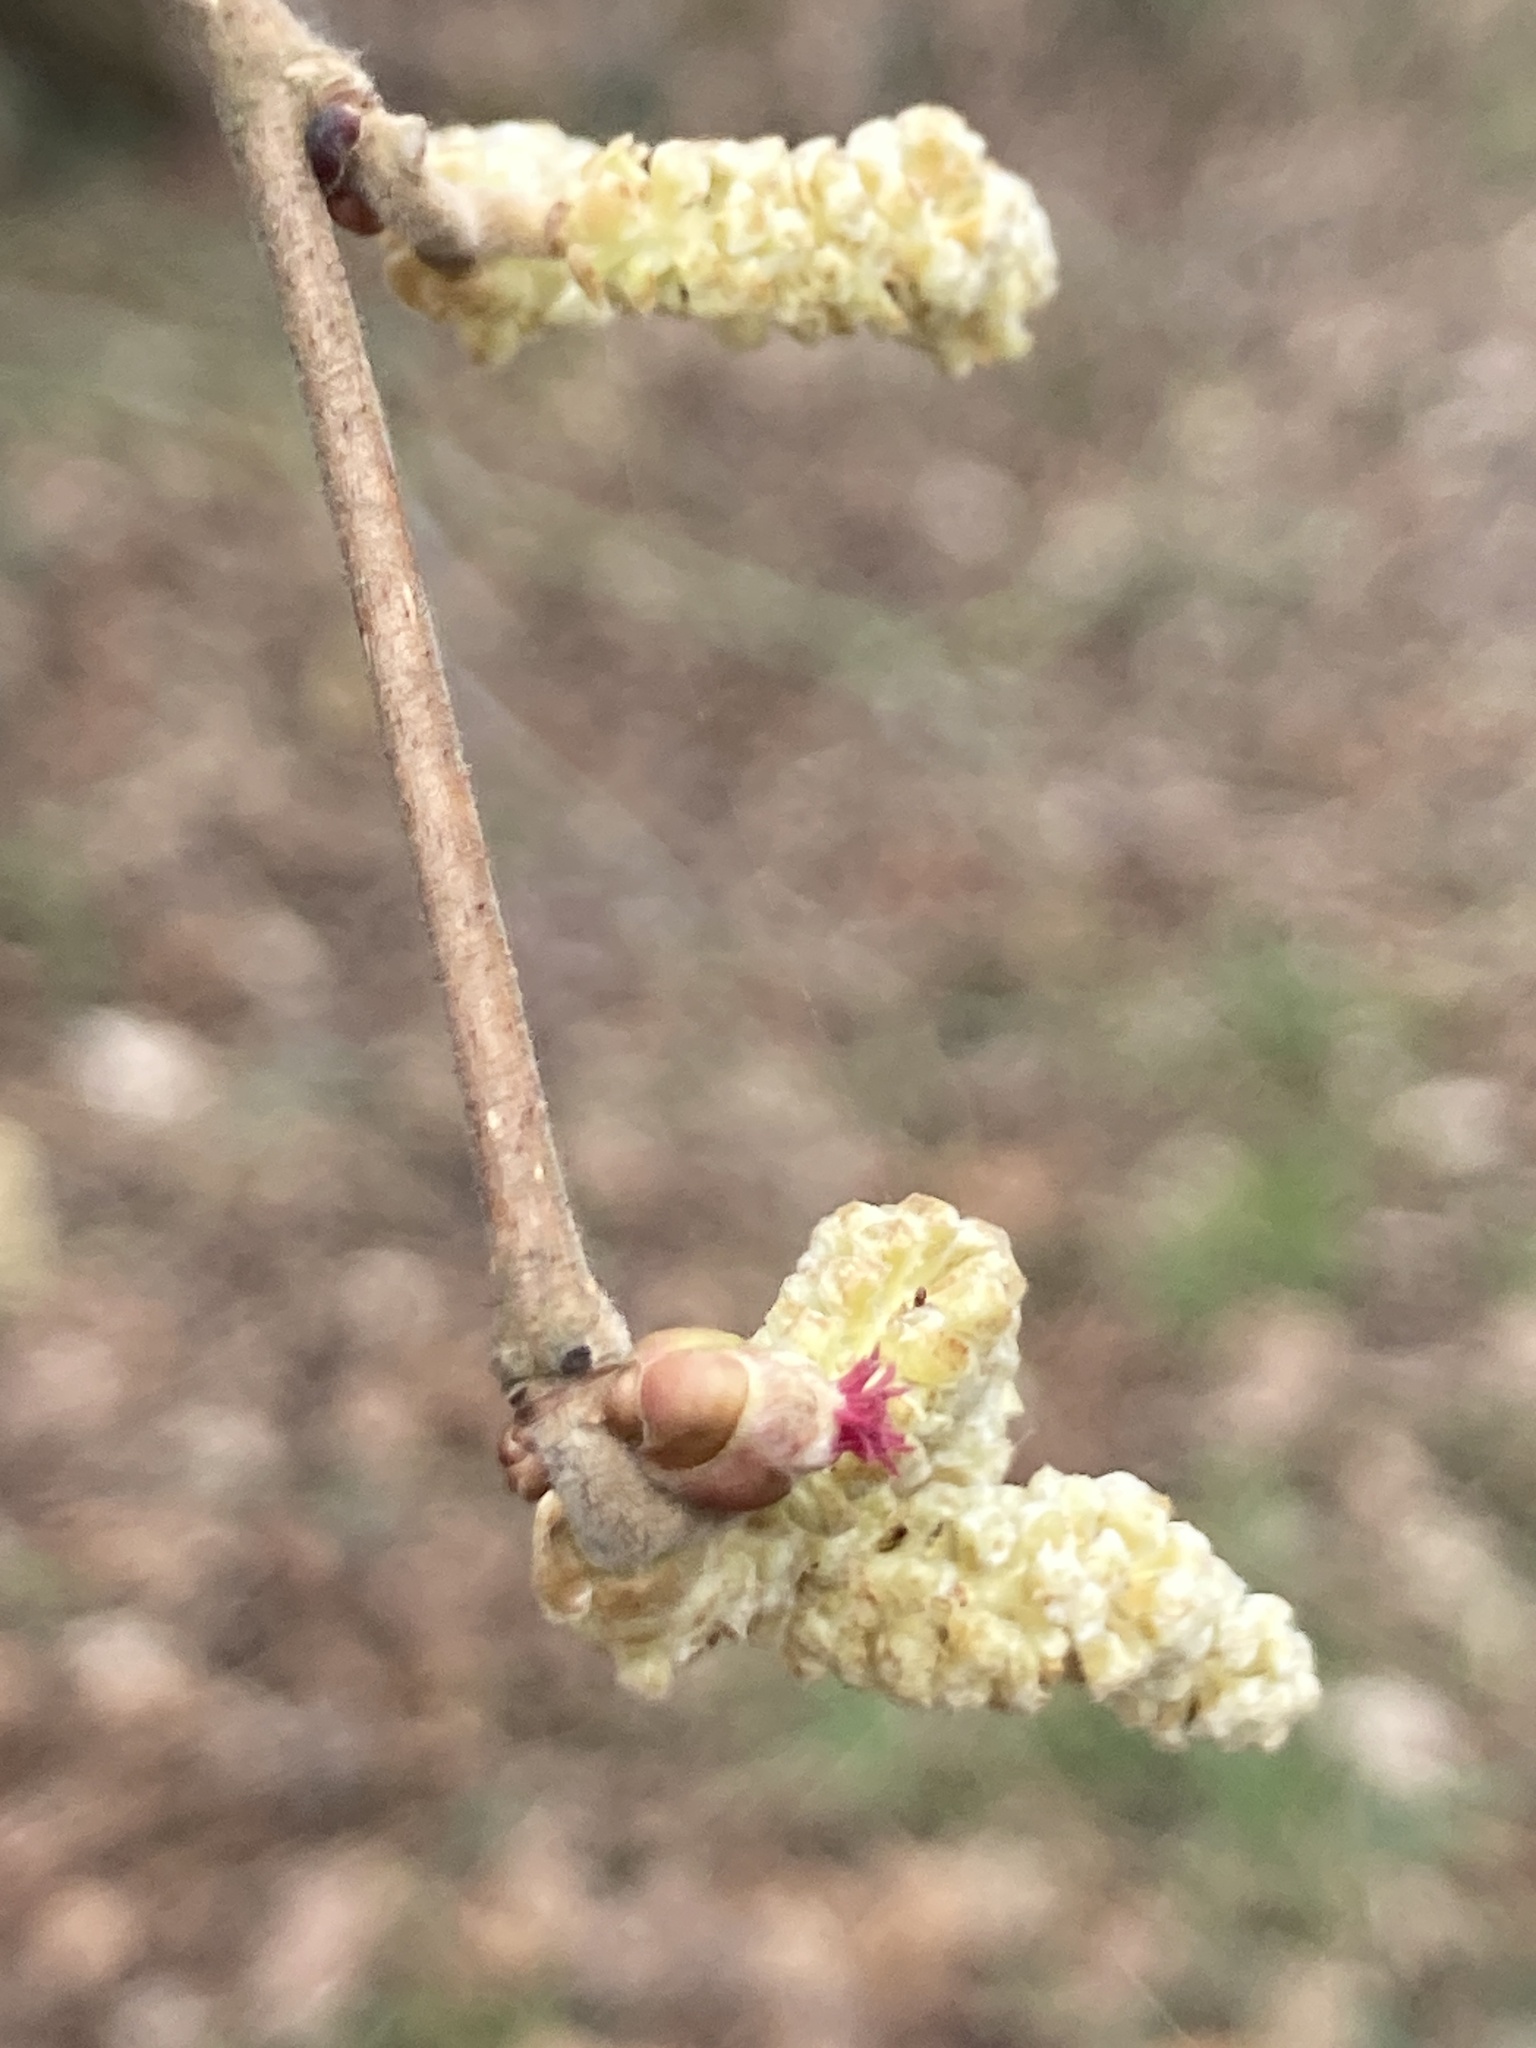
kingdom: Plantae
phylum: Tracheophyta
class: Magnoliopsida
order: Fagales
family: Betulaceae
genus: Corylus
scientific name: Corylus avellana
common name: European hazel
